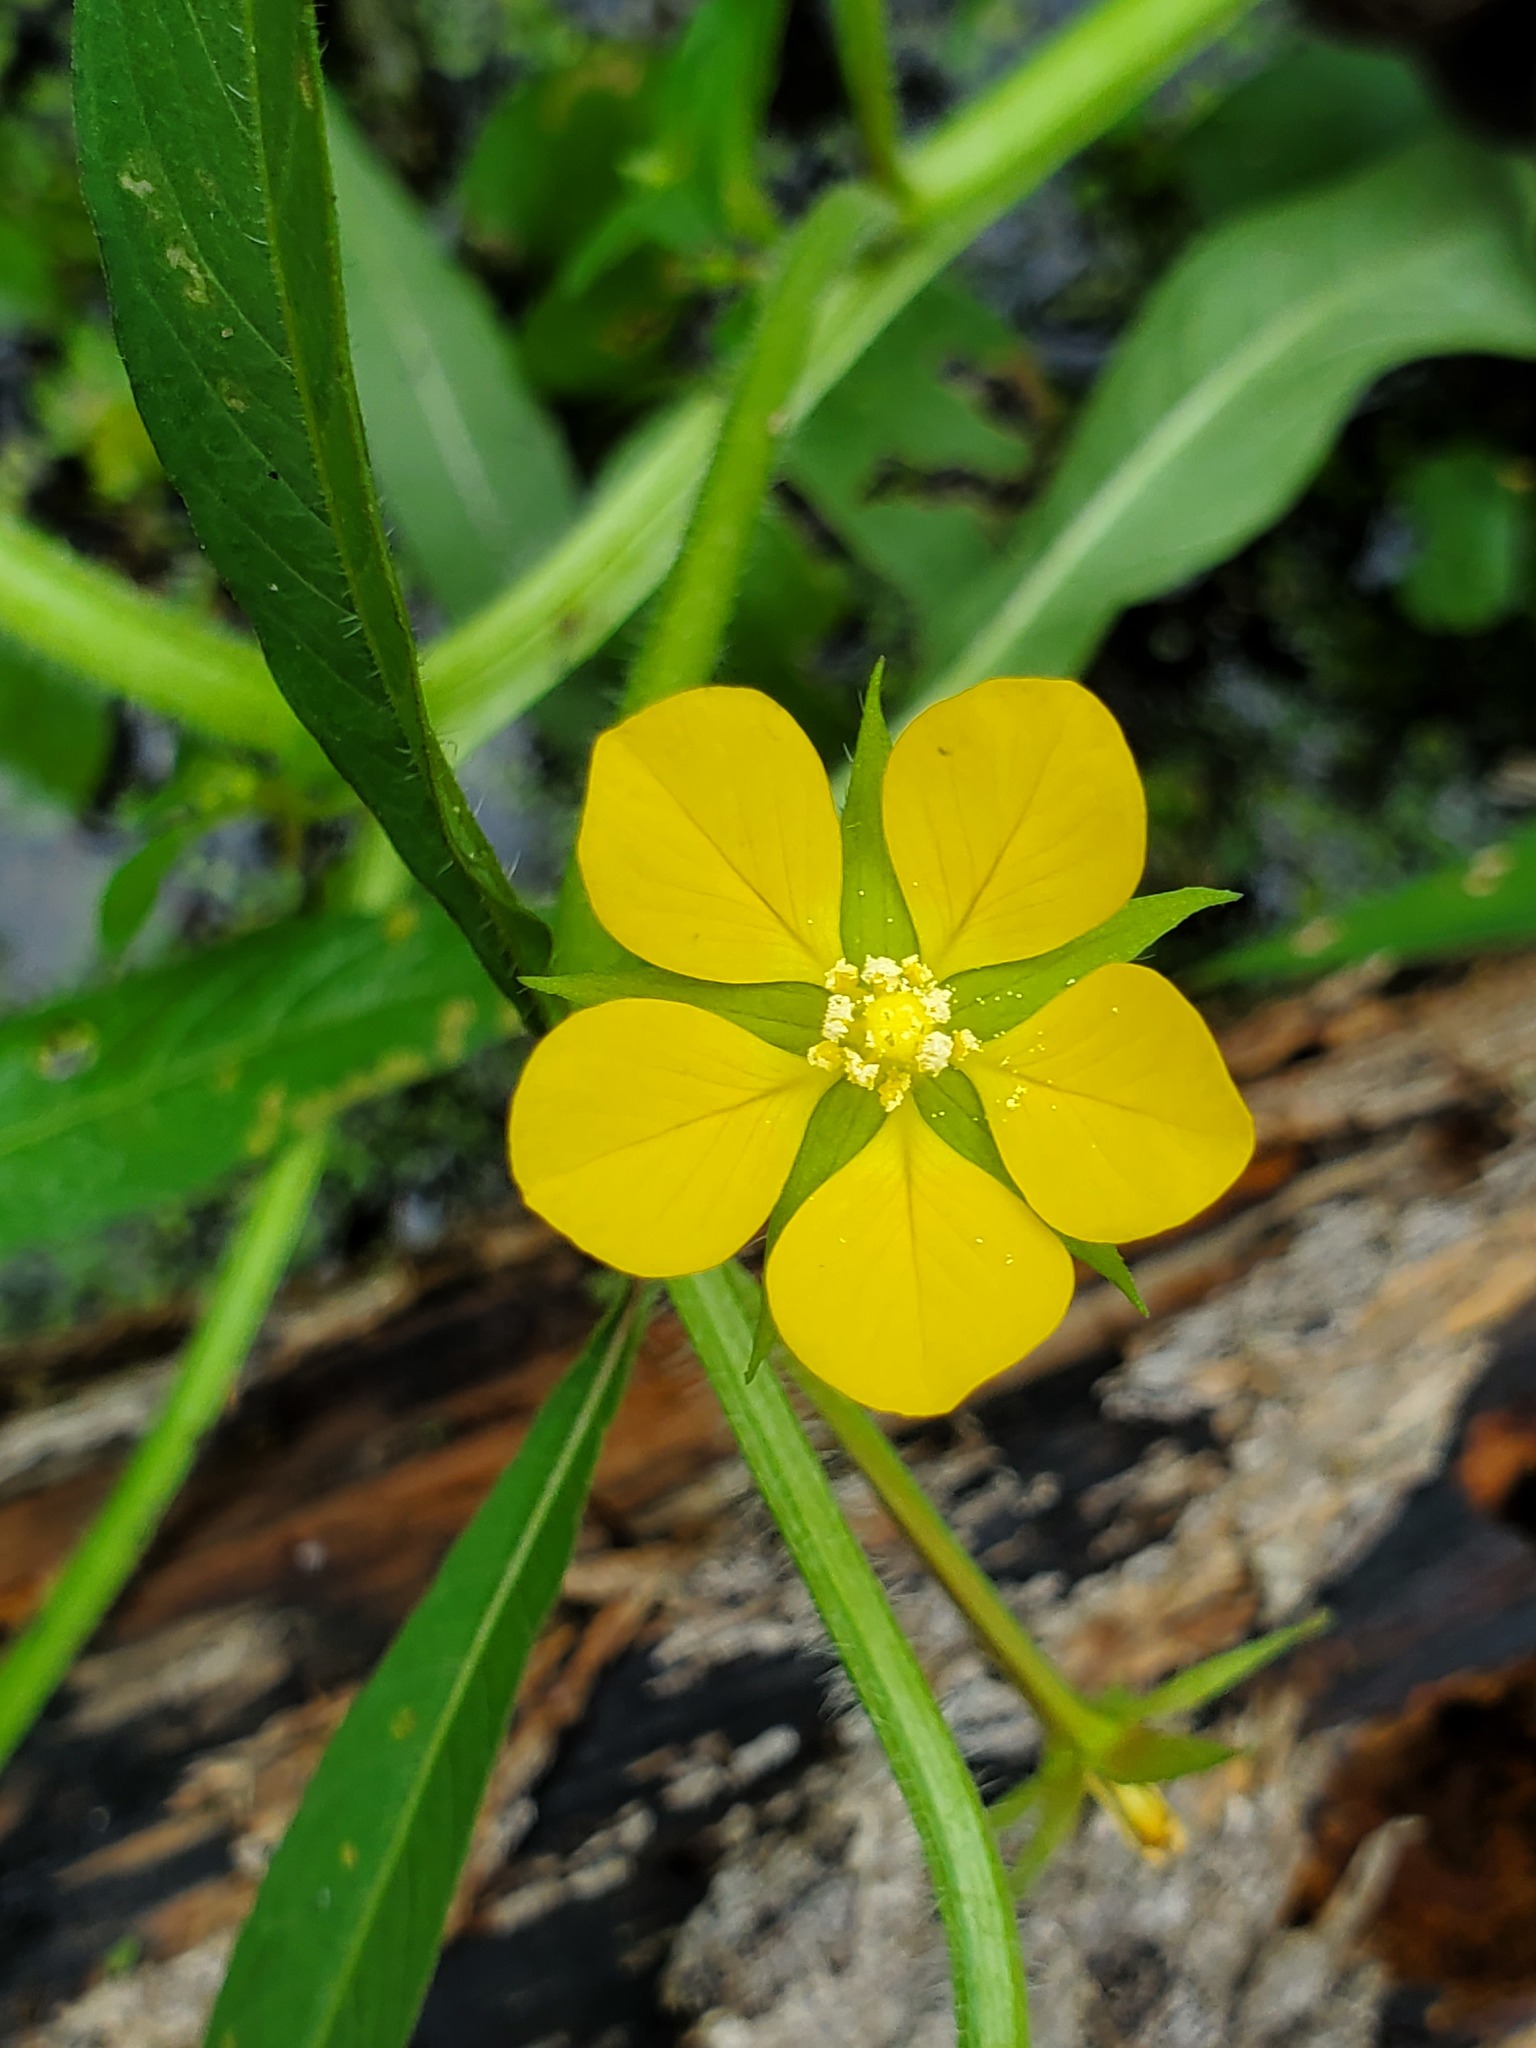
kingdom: Plantae
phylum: Tracheophyta
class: Magnoliopsida
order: Myrtales
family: Onagraceae
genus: Ludwigia
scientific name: Ludwigia leptocarpa
